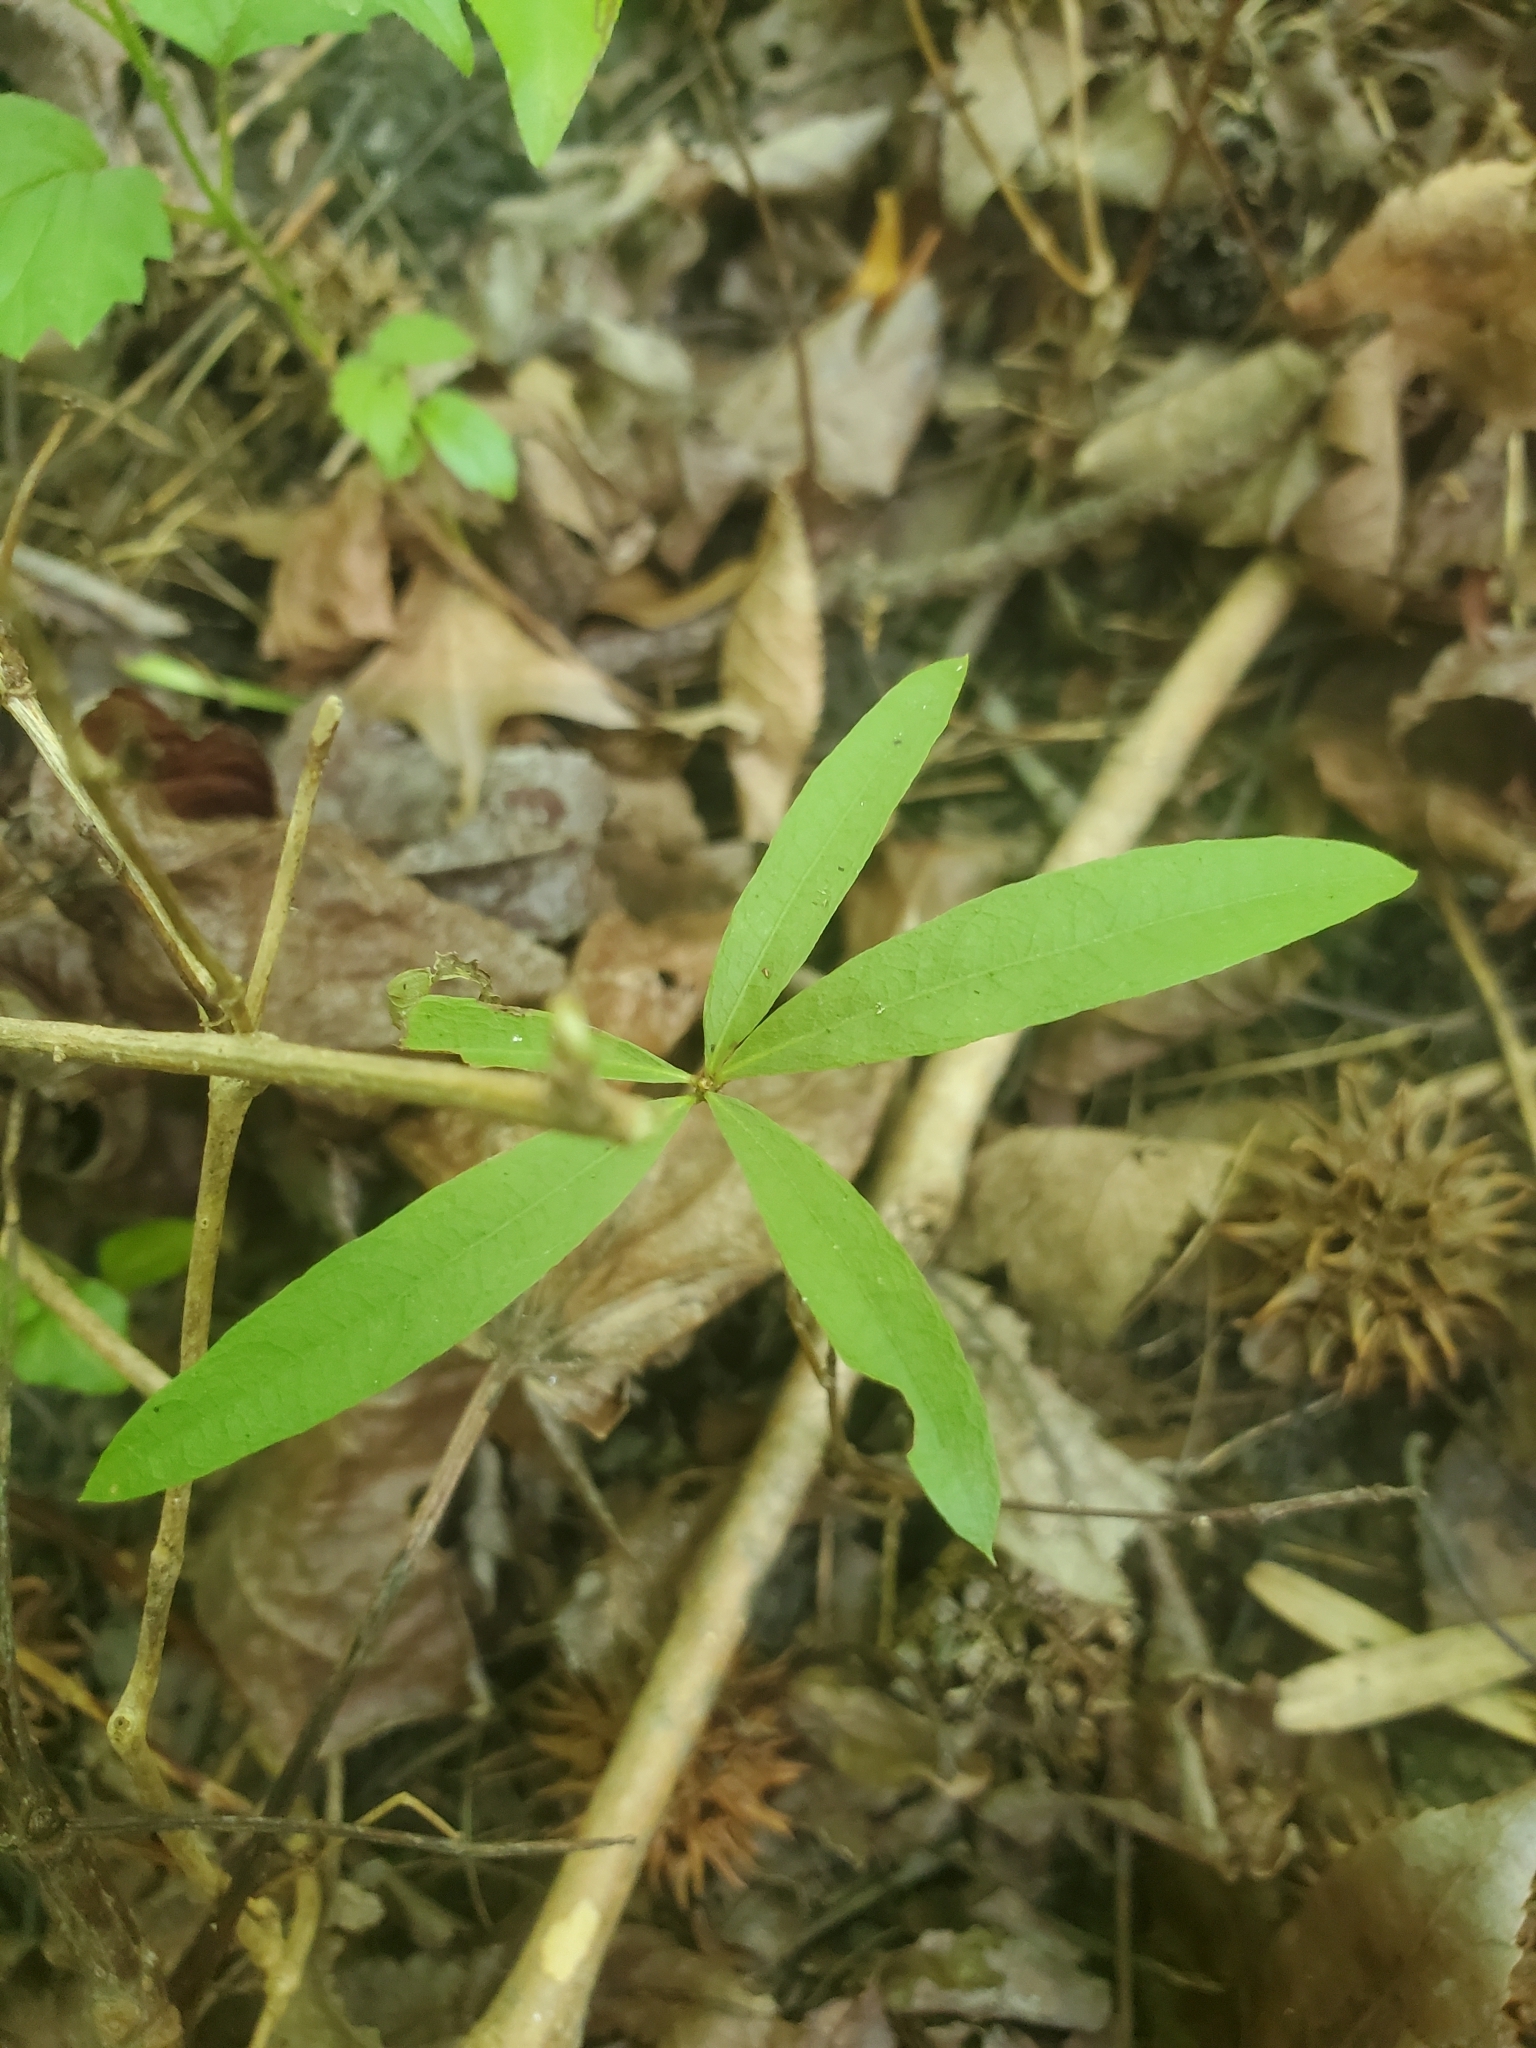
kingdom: Plantae
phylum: Tracheophyta
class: Magnoliopsida
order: Fagales
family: Fagaceae
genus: Quercus
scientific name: Quercus phellos
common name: Willow oak
